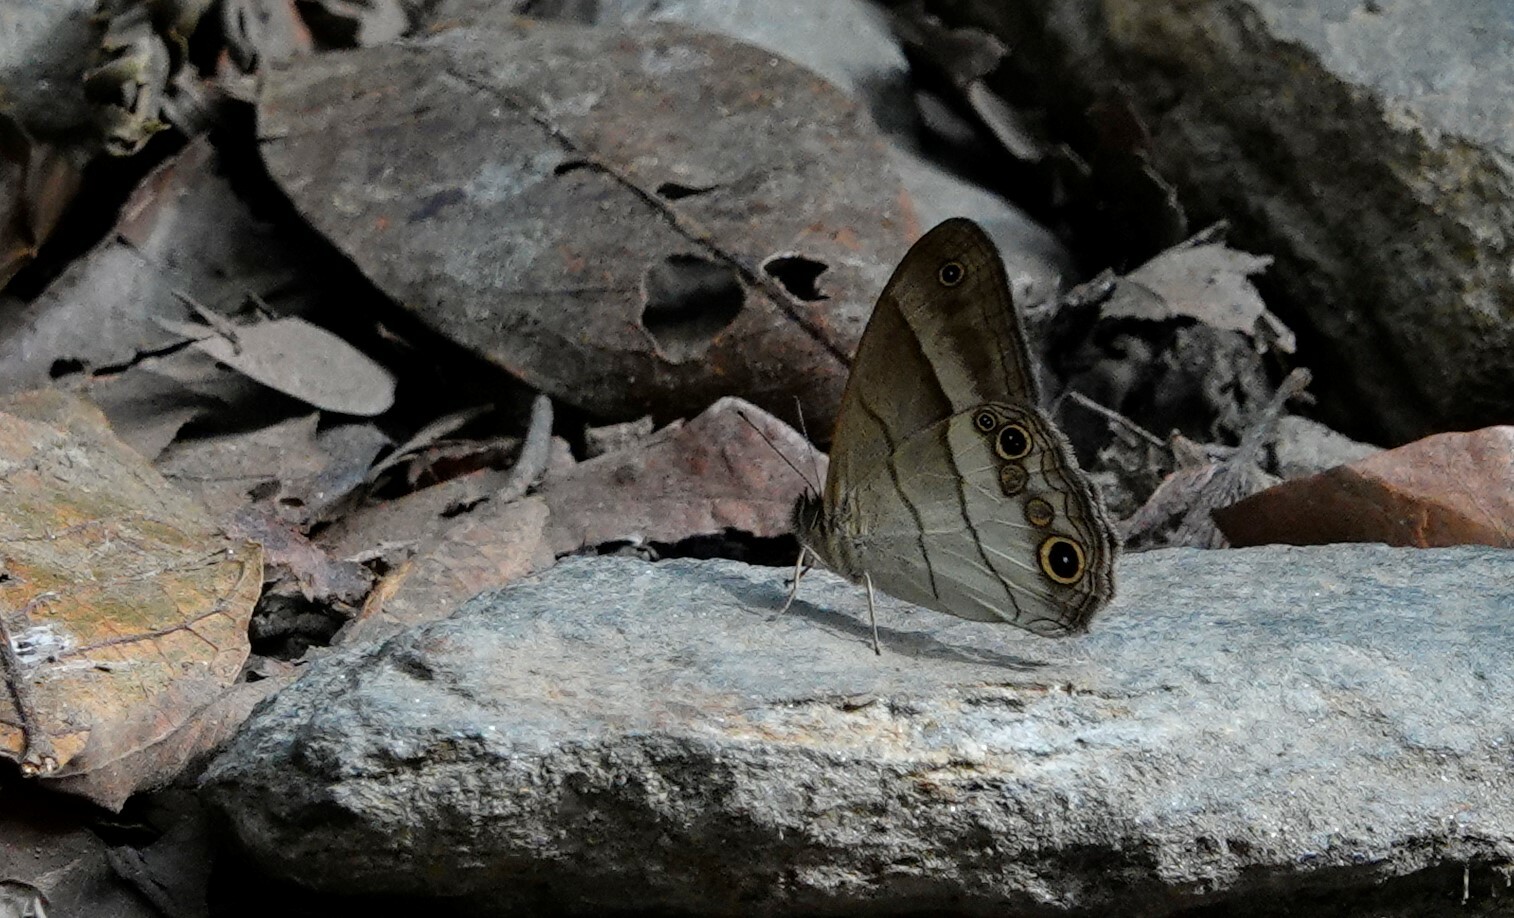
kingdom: Animalia
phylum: Arthropoda
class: Insecta
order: Lepidoptera
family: Nymphalidae
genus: Euptychoides
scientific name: Euptychoides saturnus
